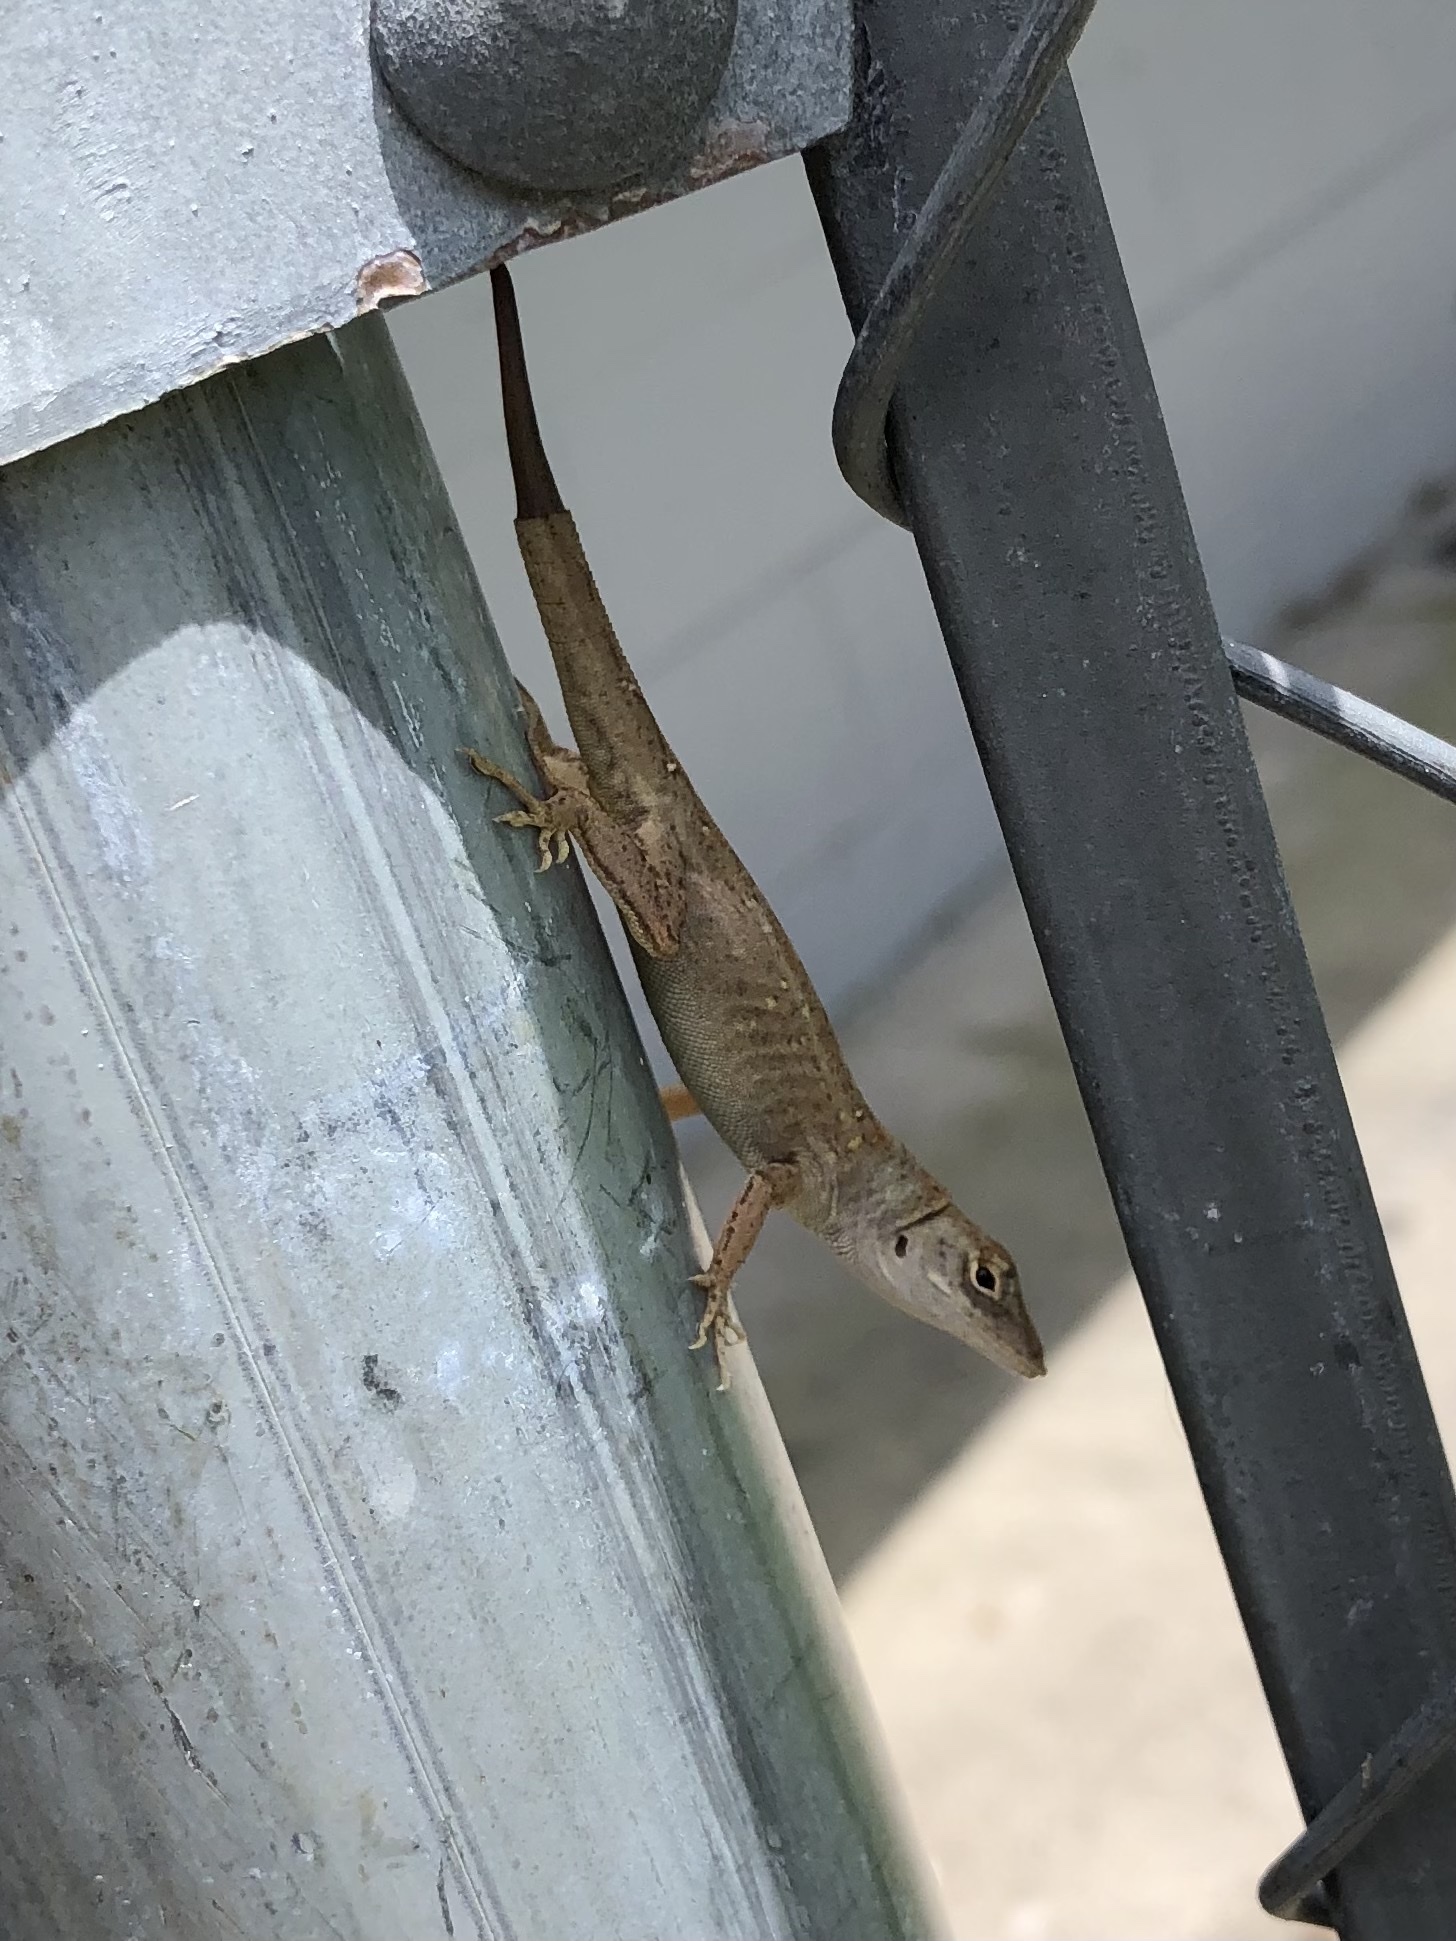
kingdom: Animalia
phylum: Chordata
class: Squamata
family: Dactyloidae
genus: Anolis
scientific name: Anolis sagrei
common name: Brown anole
